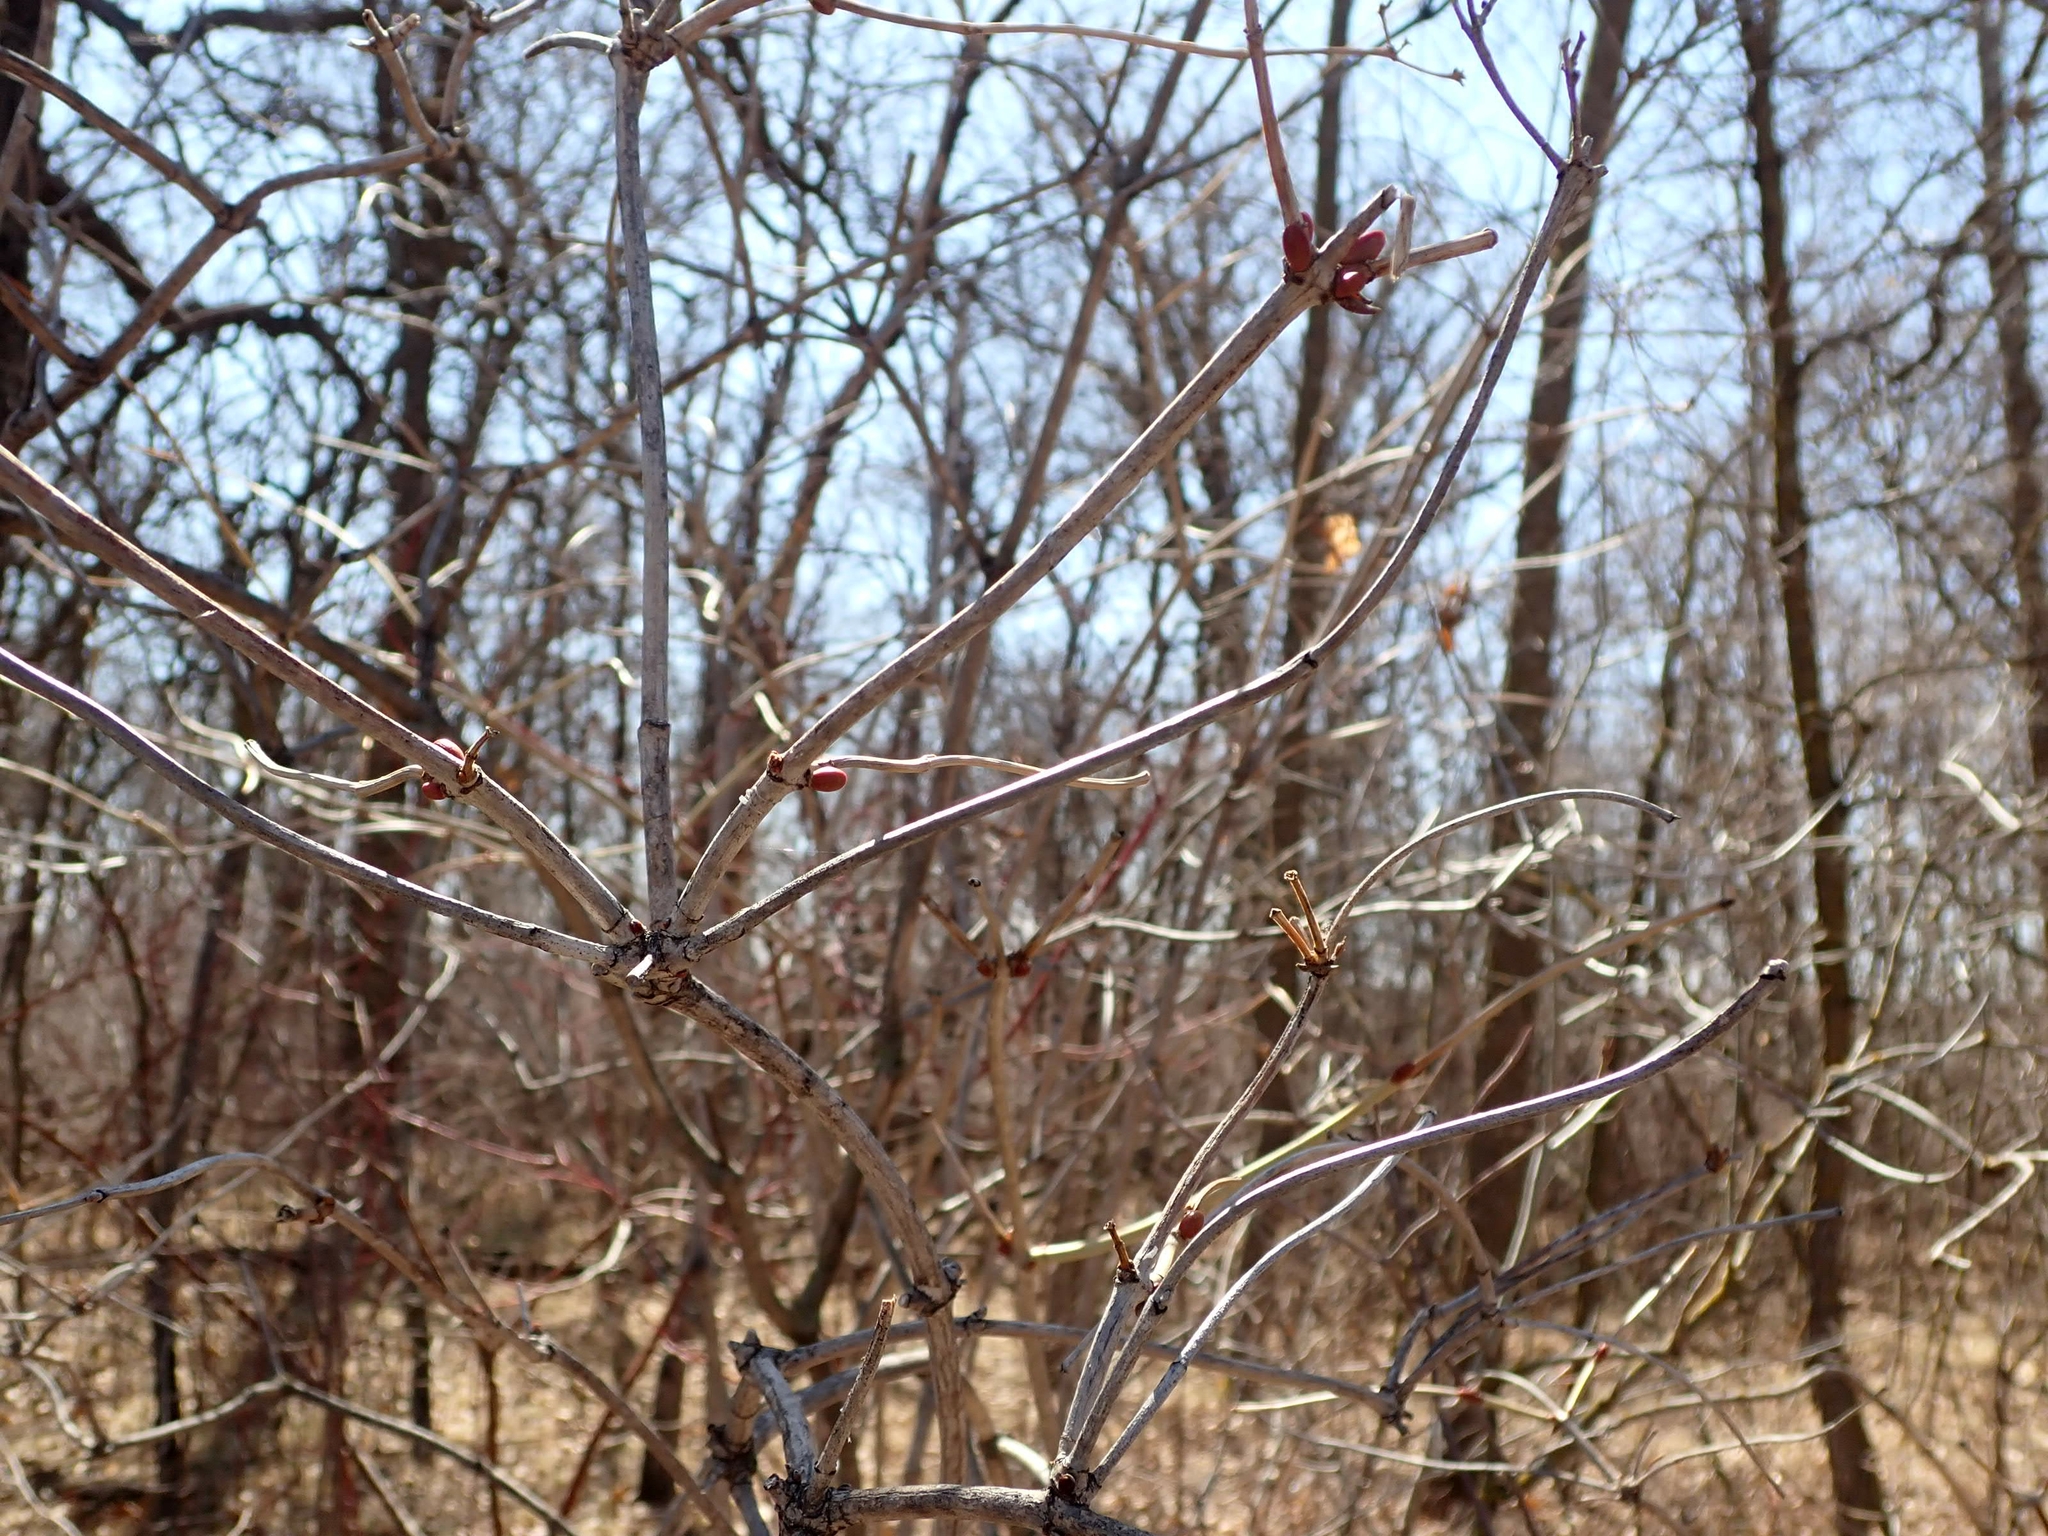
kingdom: Plantae
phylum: Tracheophyta
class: Magnoliopsida
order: Dipsacales
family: Viburnaceae
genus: Viburnum
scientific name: Viburnum trilobum
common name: American cranberrybush
